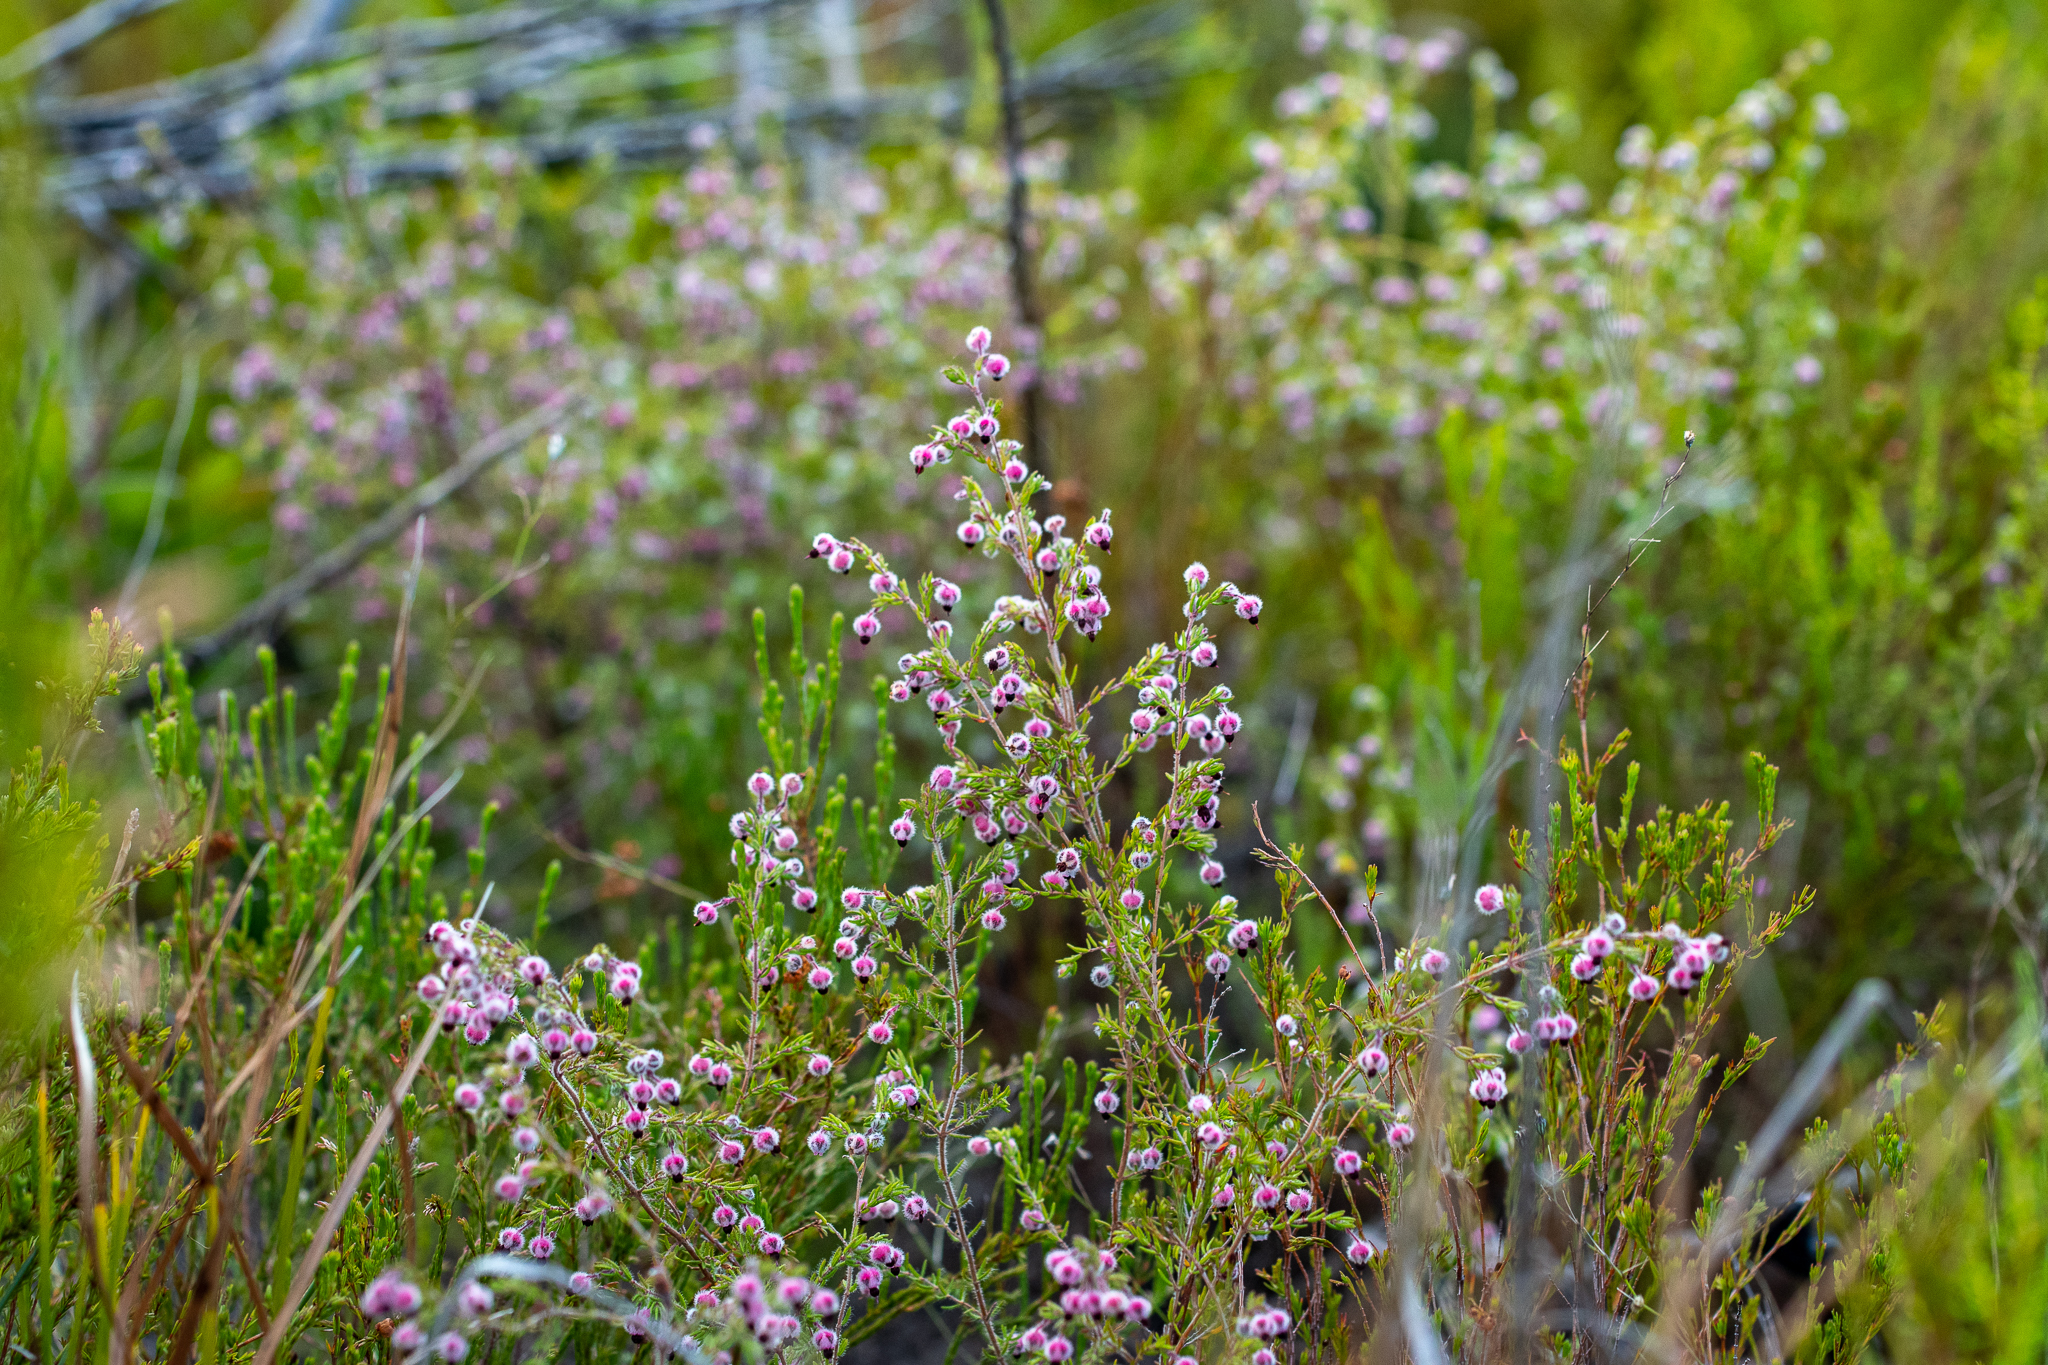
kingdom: Plantae
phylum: Tracheophyta
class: Magnoliopsida
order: Ericales
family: Ericaceae
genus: Erica
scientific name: Erica bruniades
